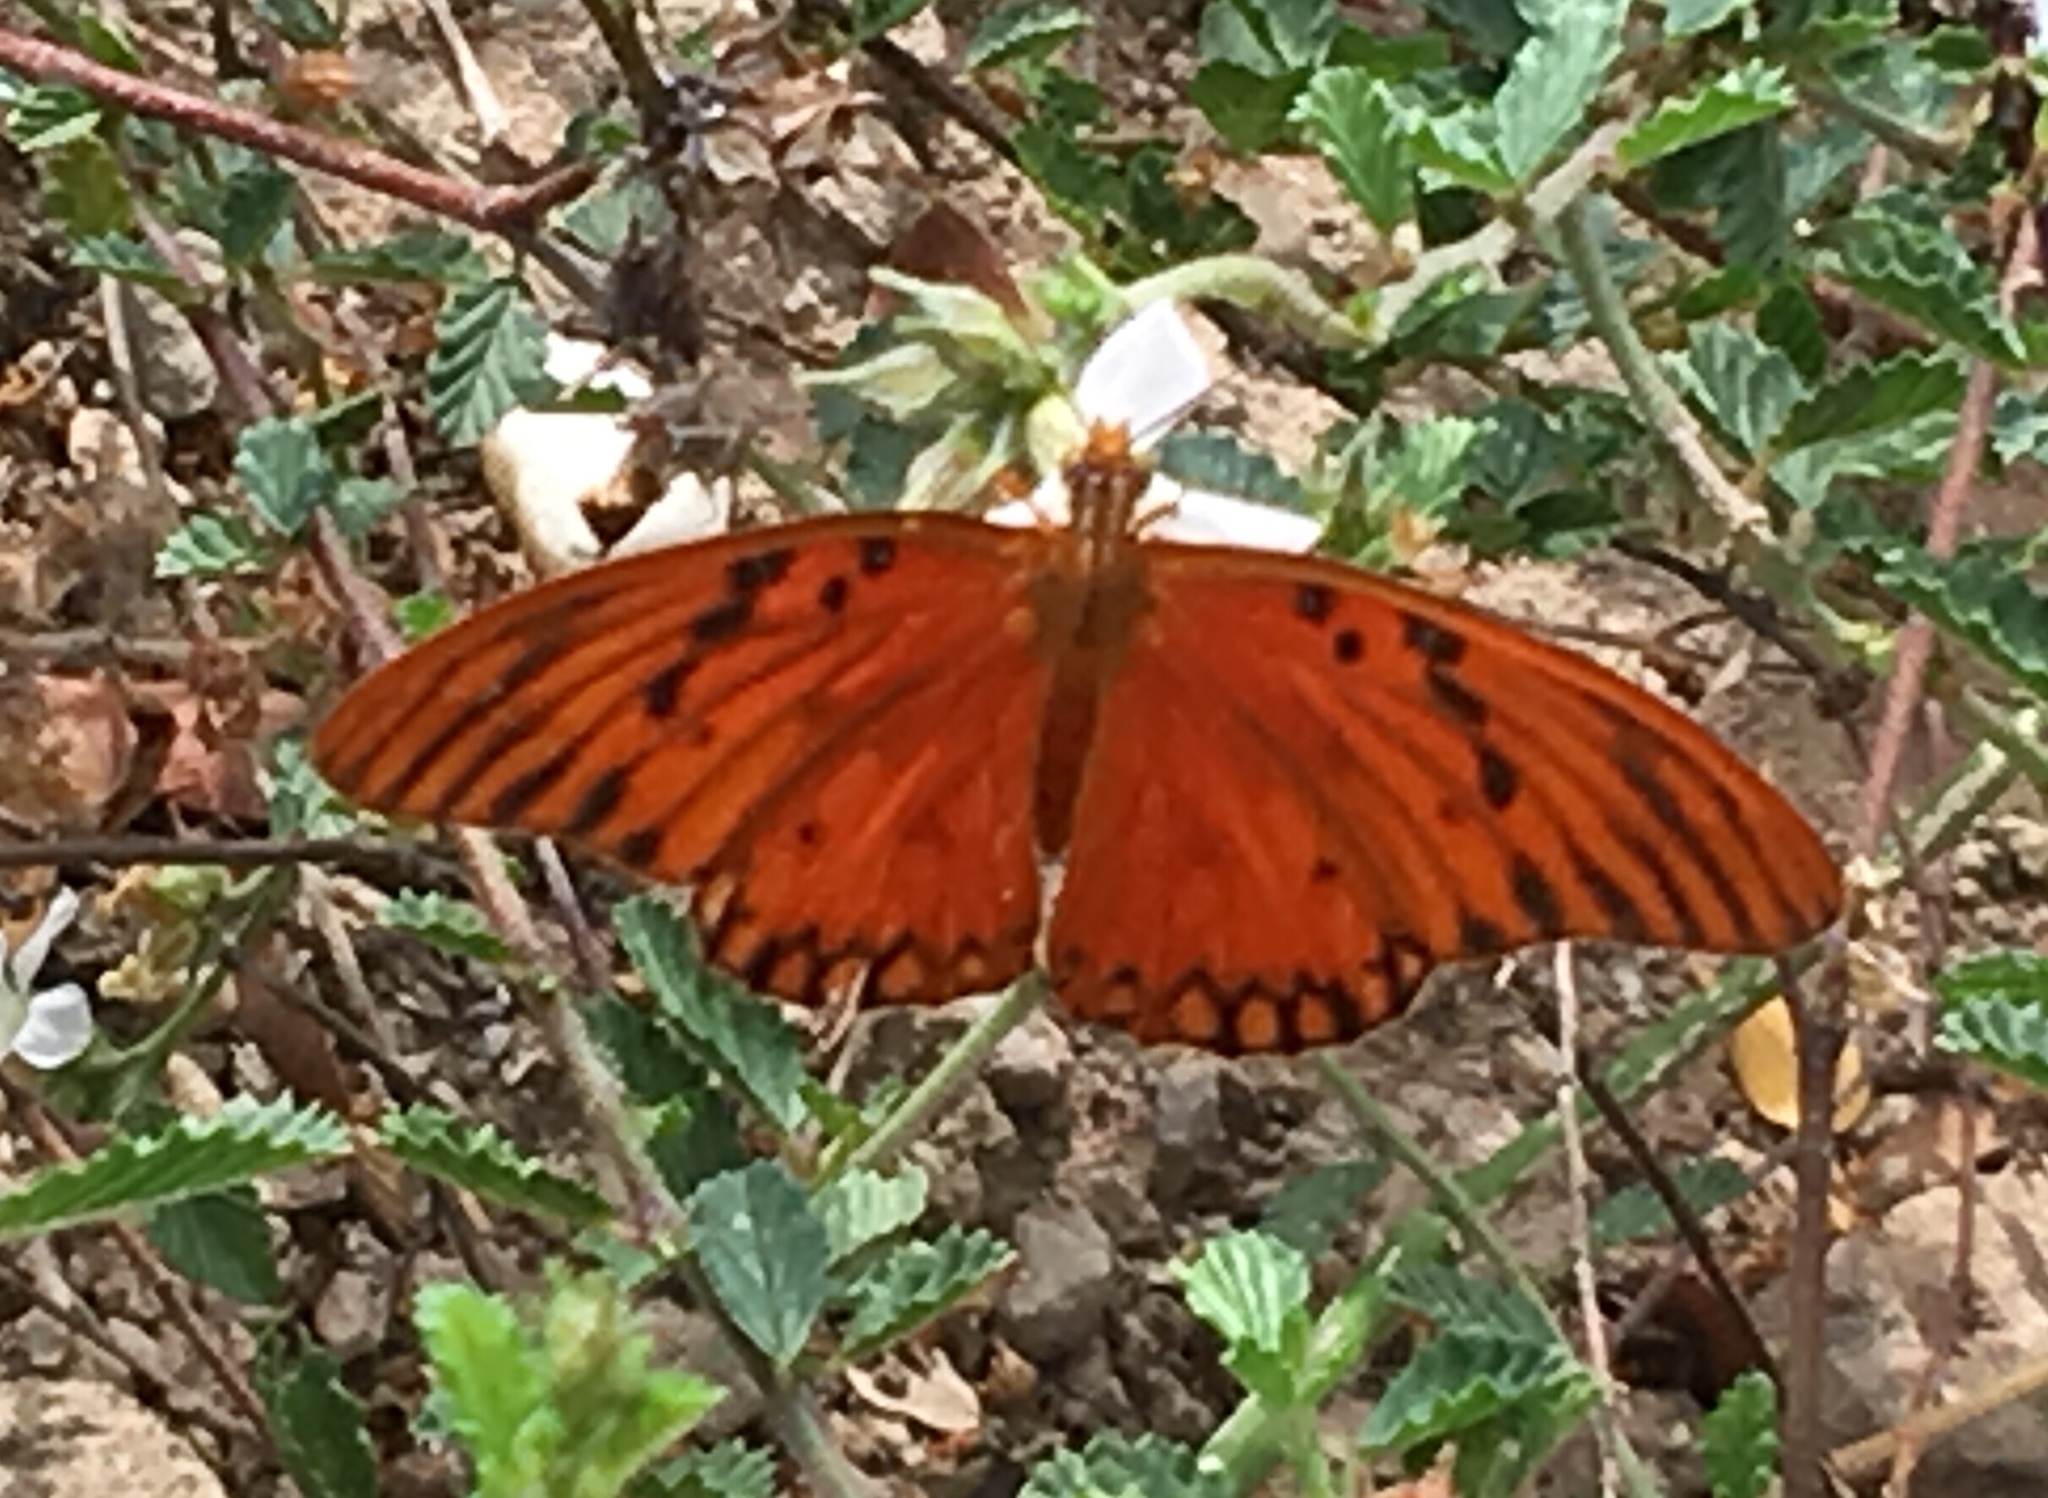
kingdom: Animalia
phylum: Arthropoda
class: Insecta
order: Lepidoptera
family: Nymphalidae
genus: Dione
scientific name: Dione vanillae
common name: Gulf fritillary
